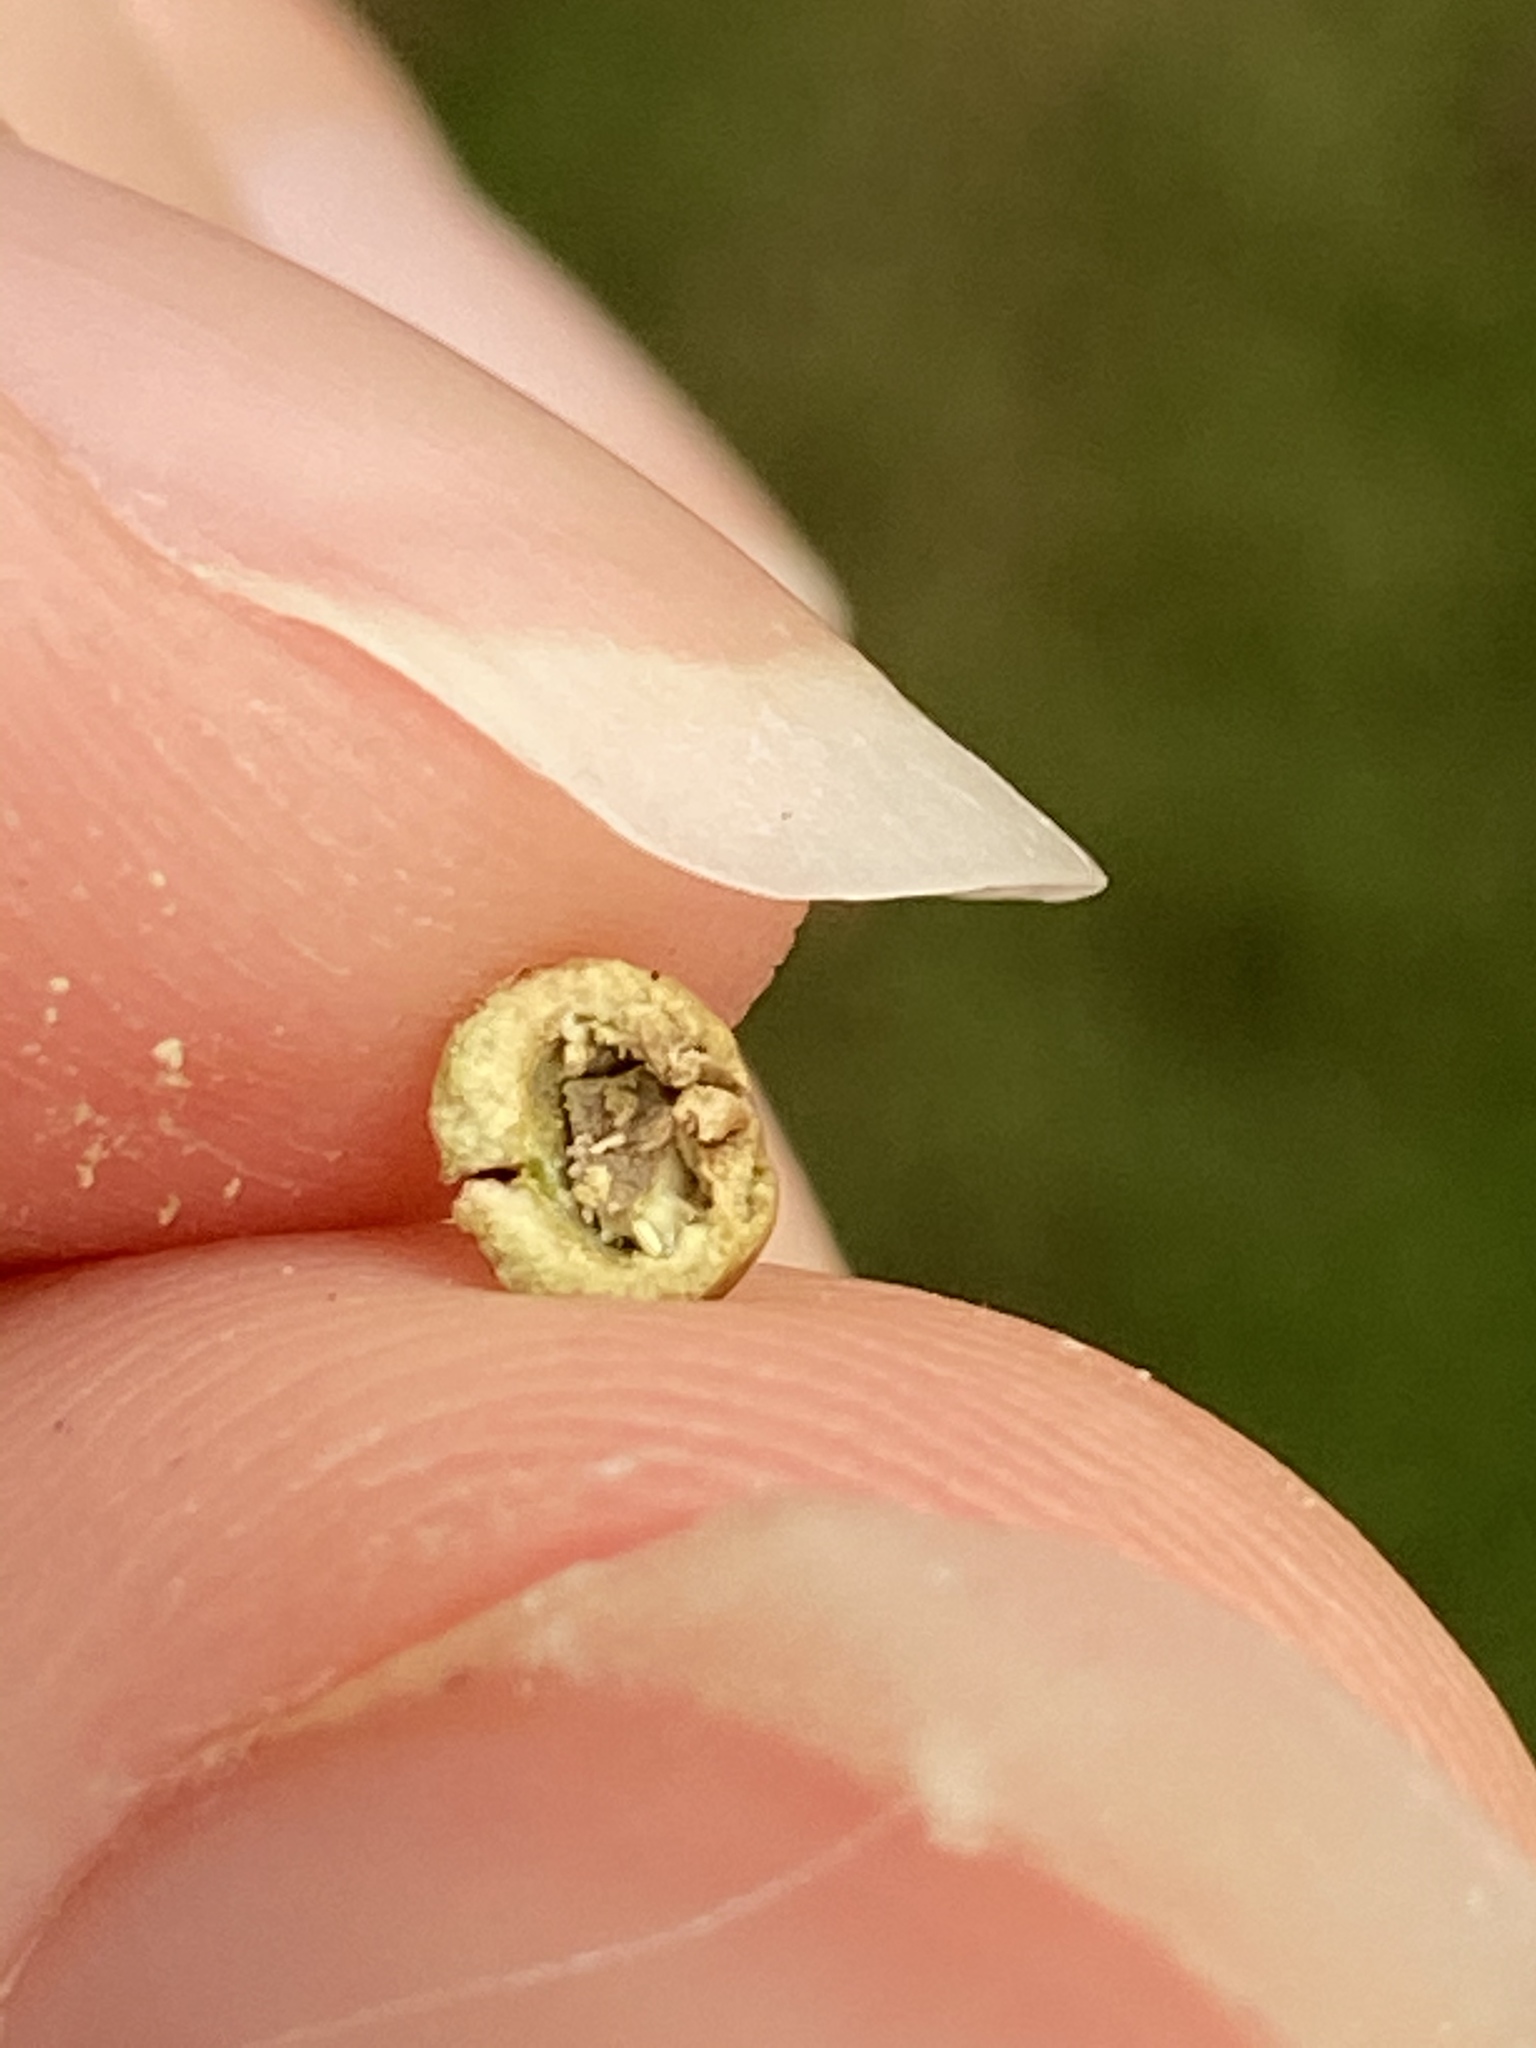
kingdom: Animalia
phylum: Arthropoda
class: Insecta
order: Hemiptera
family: Aphalaridae
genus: Pachypsylla
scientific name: Pachypsylla celtidismamma
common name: Hackberry nipplegall psyllid
